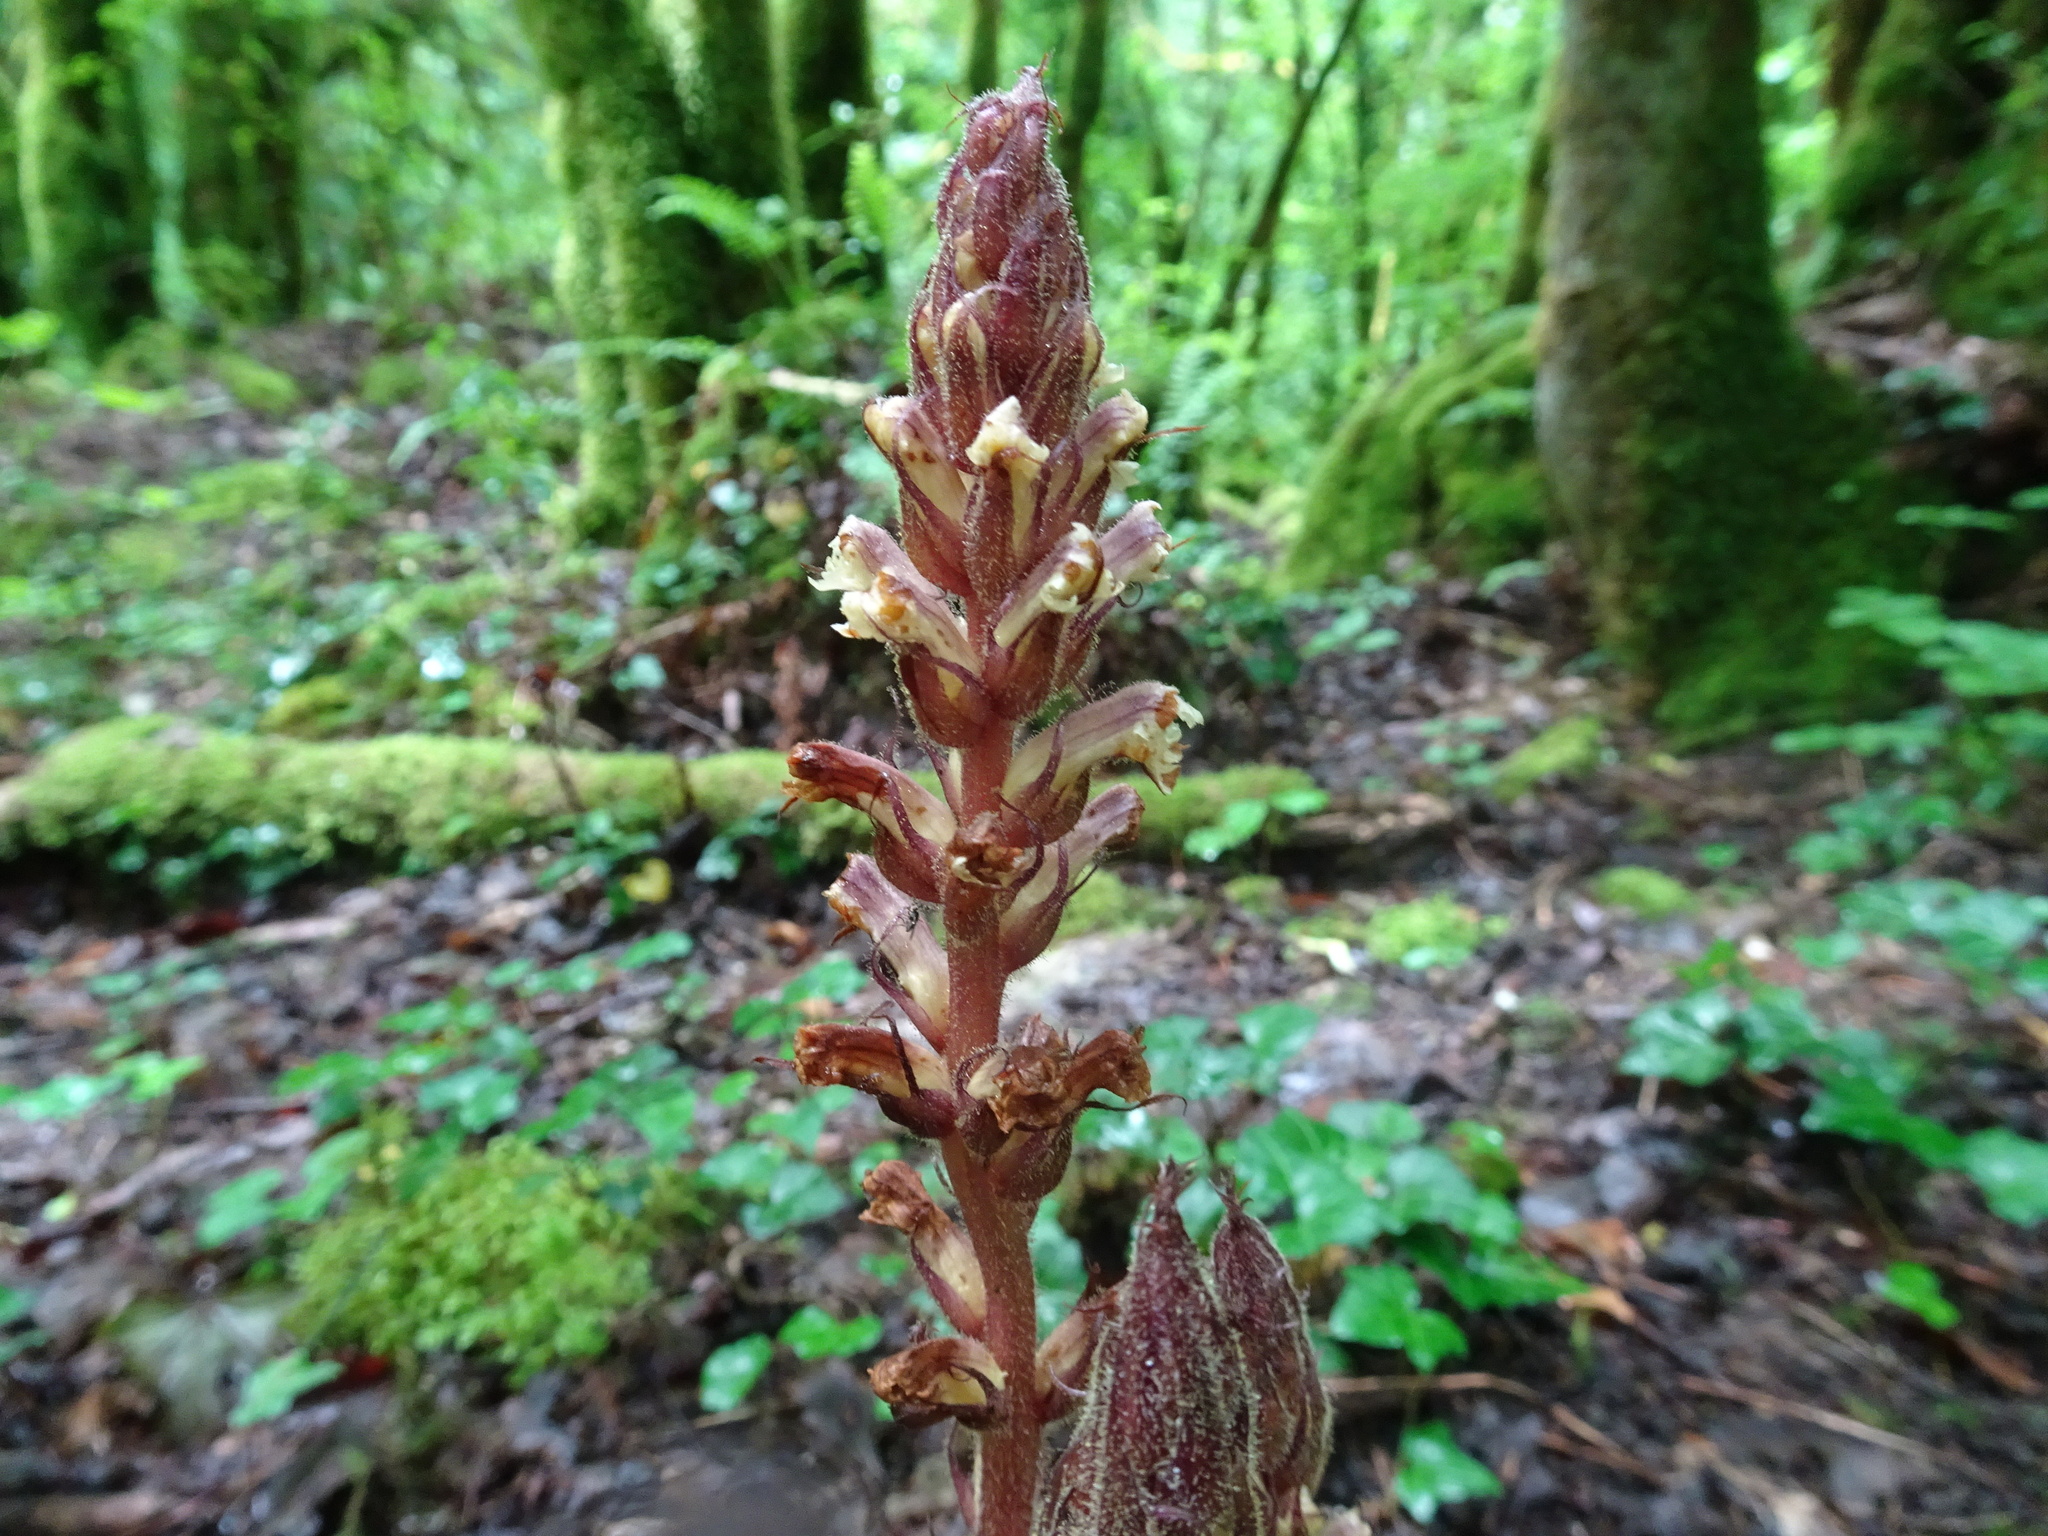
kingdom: Plantae
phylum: Tracheophyta
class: Magnoliopsida
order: Lamiales
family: Orobanchaceae
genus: Orobanche
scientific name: Orobanche hederae
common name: Ivy broomrape
